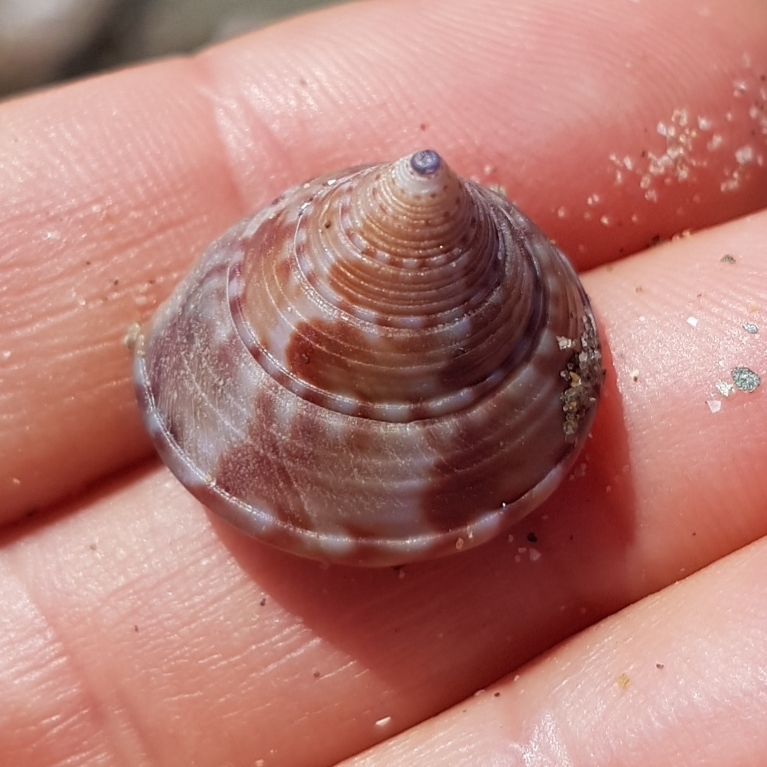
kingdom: Animalia
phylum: Mollusca
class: Gastropoda
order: Trochida
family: Calliostomatidae
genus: Calliostoma
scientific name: Calliostoma zizyphinum
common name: Painted top shell
